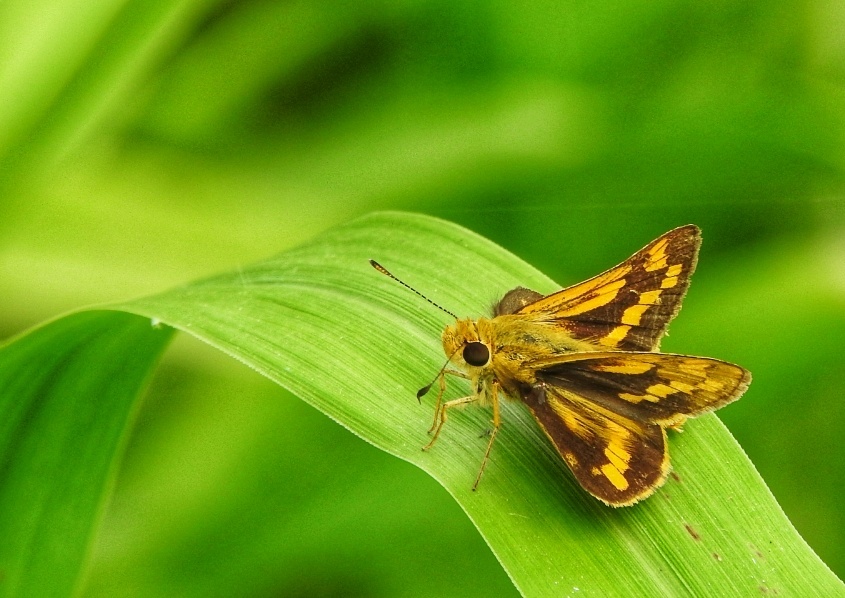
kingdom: Animalia
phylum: Arthropoda
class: Insecta
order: Lepidoptera
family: Hesperiidae
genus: Potanthus
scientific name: Potanthus pallida
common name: Pallid dart
